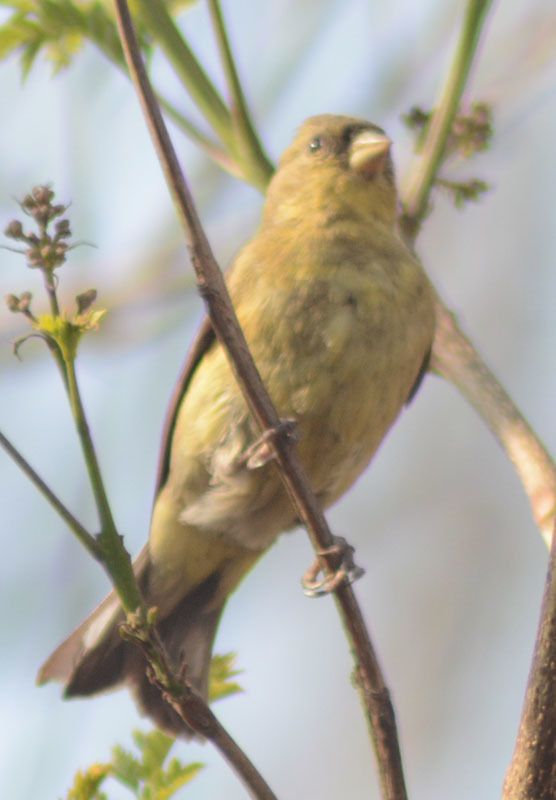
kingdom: Animalia
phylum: Chordata
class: Aves
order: Passeriformes
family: Fringillidae
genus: Spinus
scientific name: Spinus psaltria
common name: Lesser goldfinch
